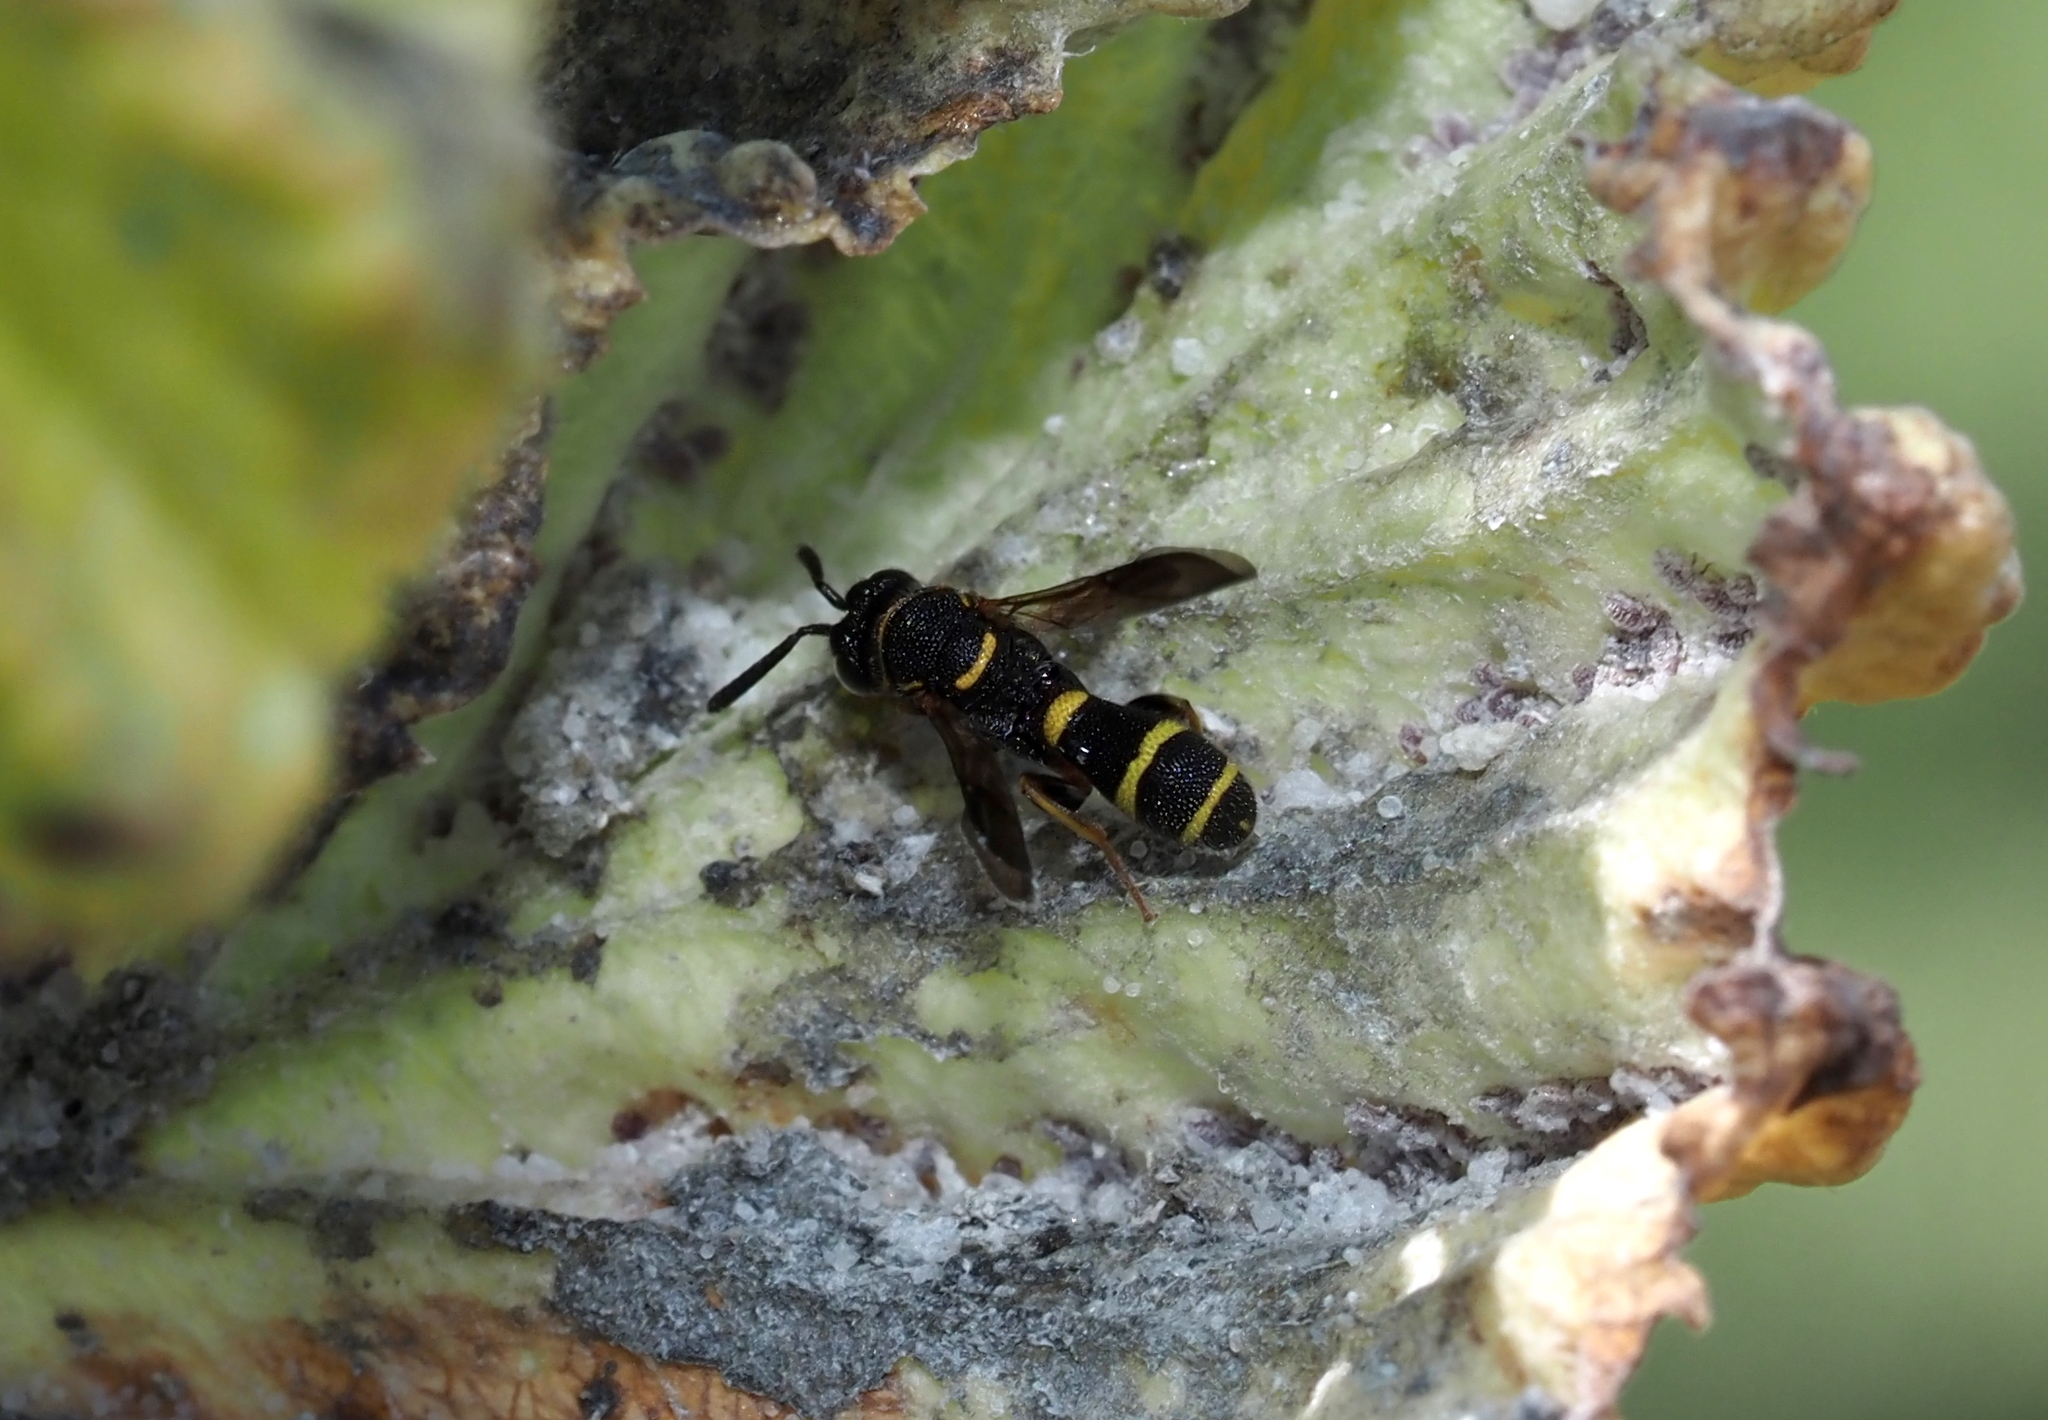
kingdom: Animalia
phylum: Arthropoda
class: Insecta
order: Hymenoptera
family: Leucospidae
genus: Leucospis
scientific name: Leucospis affinis
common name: Wasp
